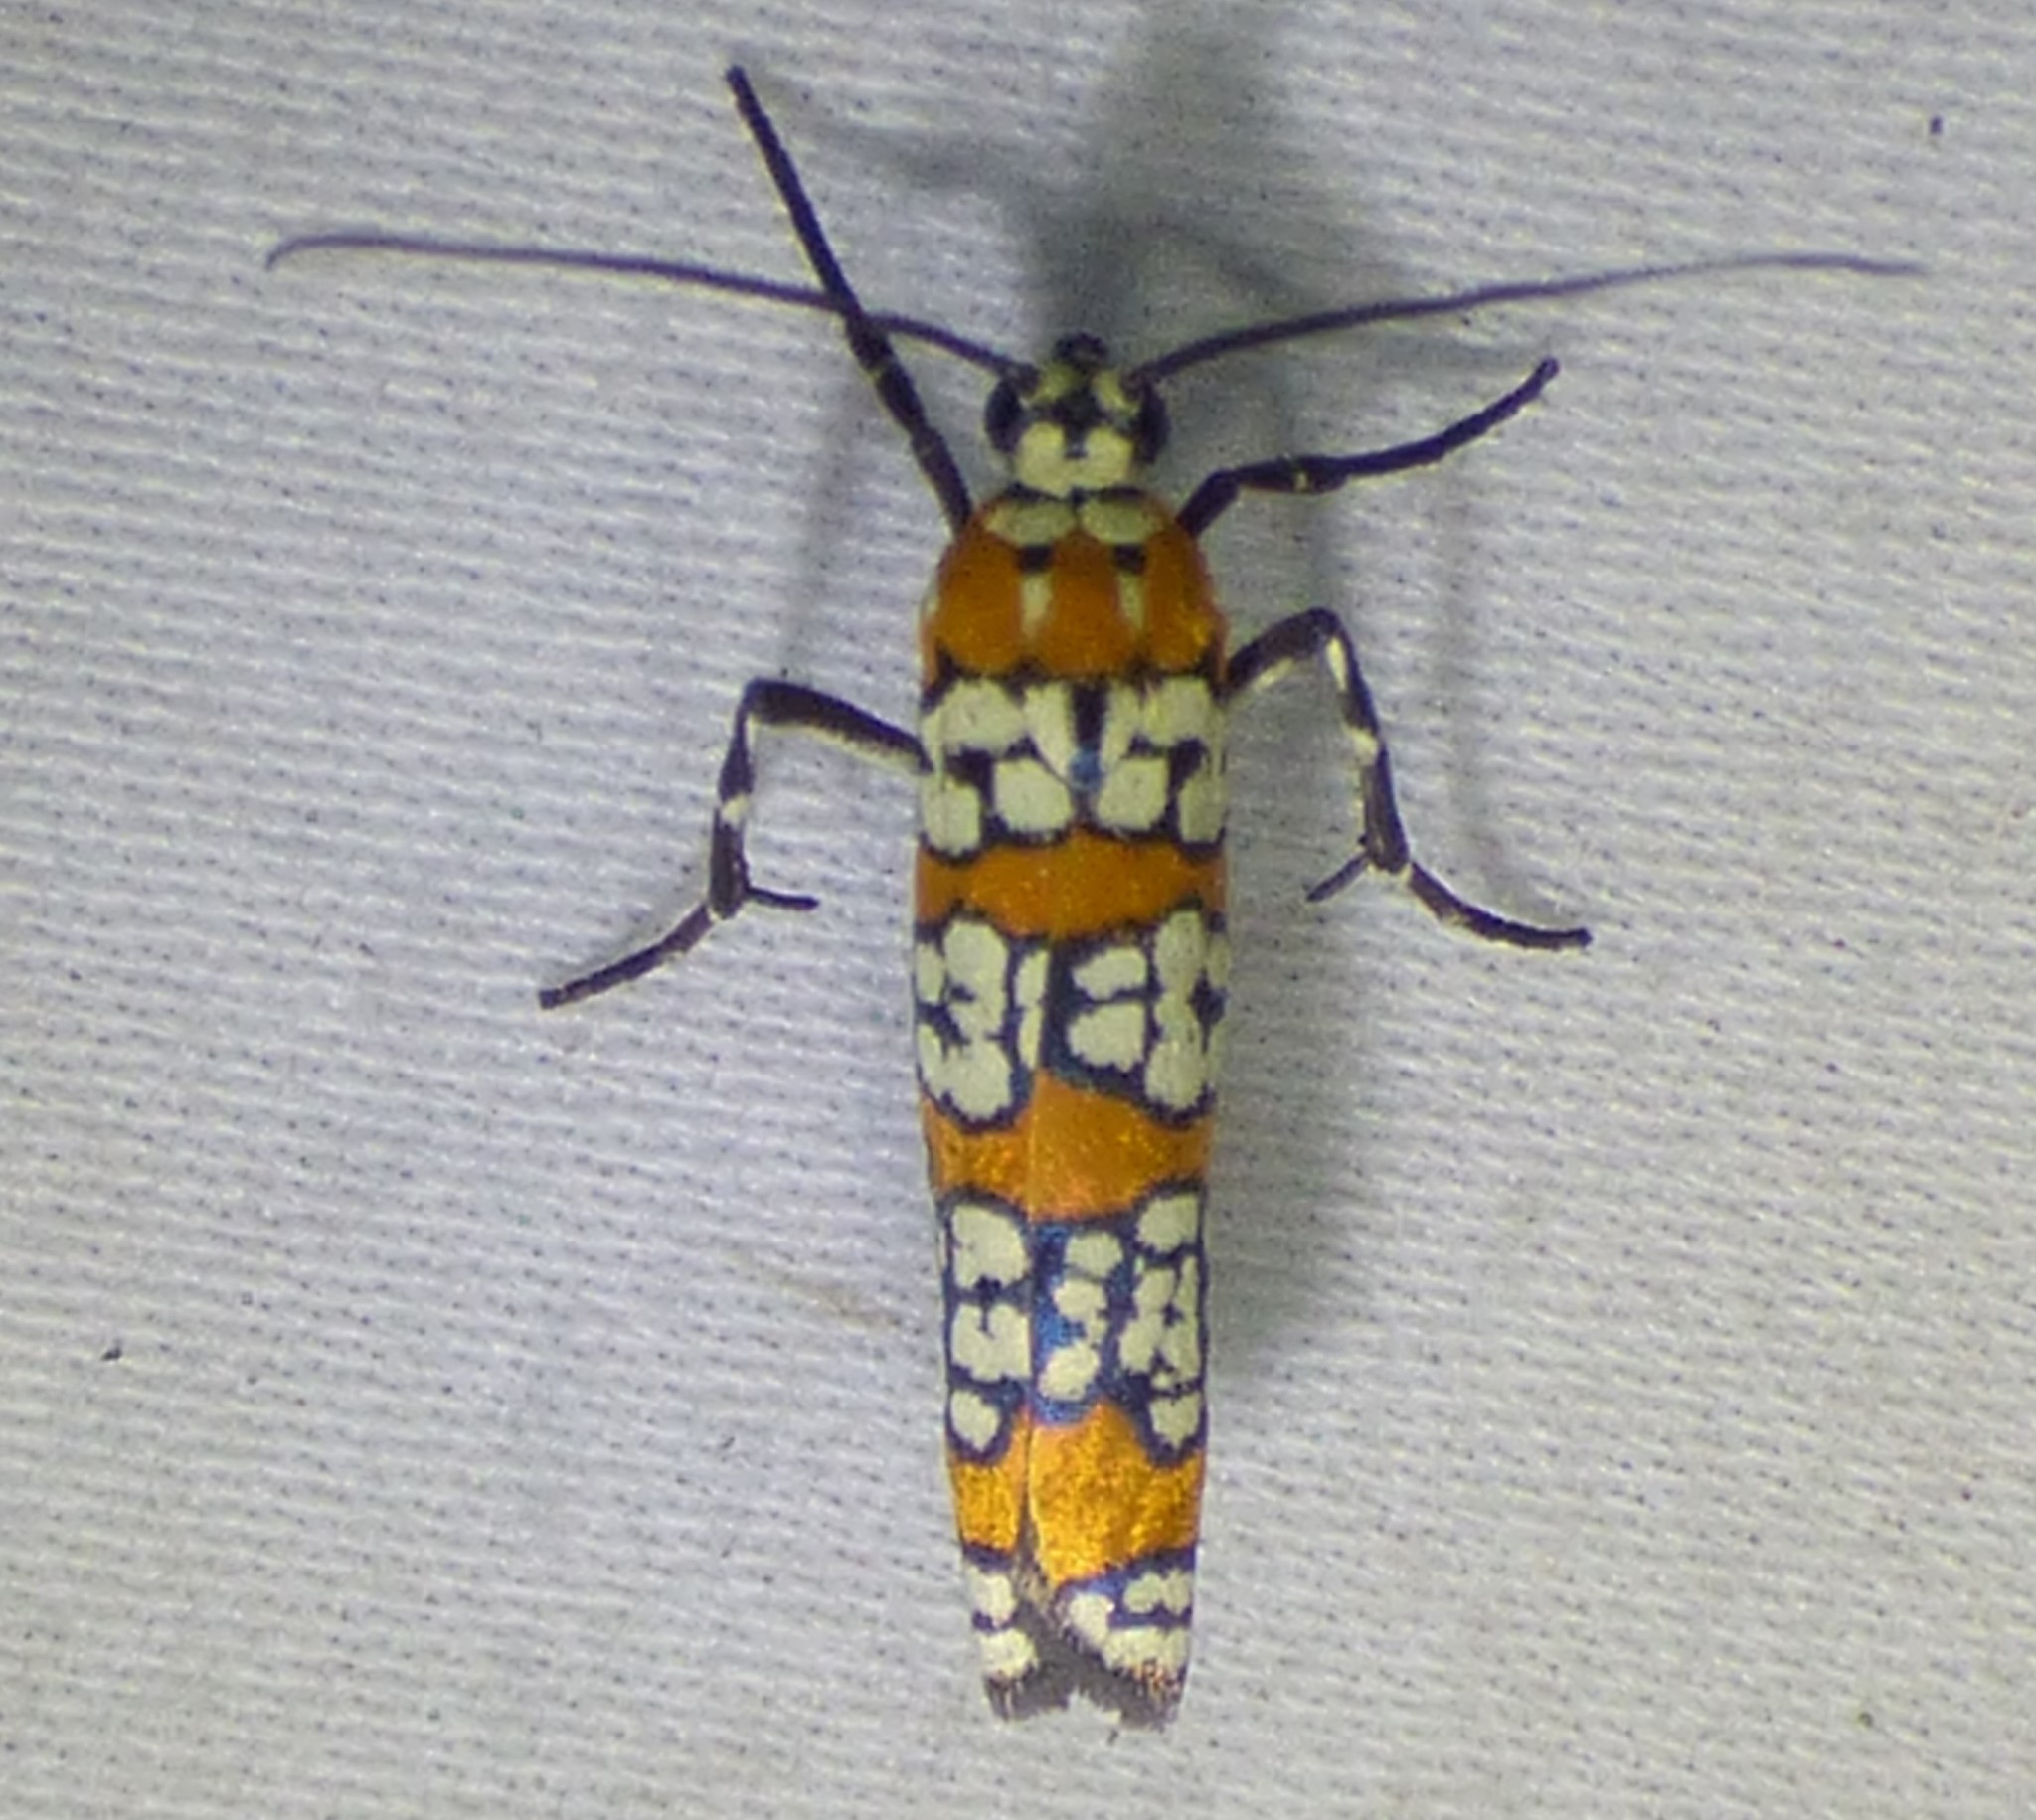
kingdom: Animalia
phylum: Arthropoda
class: Insecta
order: Lepidoptera
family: Attevidae
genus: Atteva
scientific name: Atteva punctella
